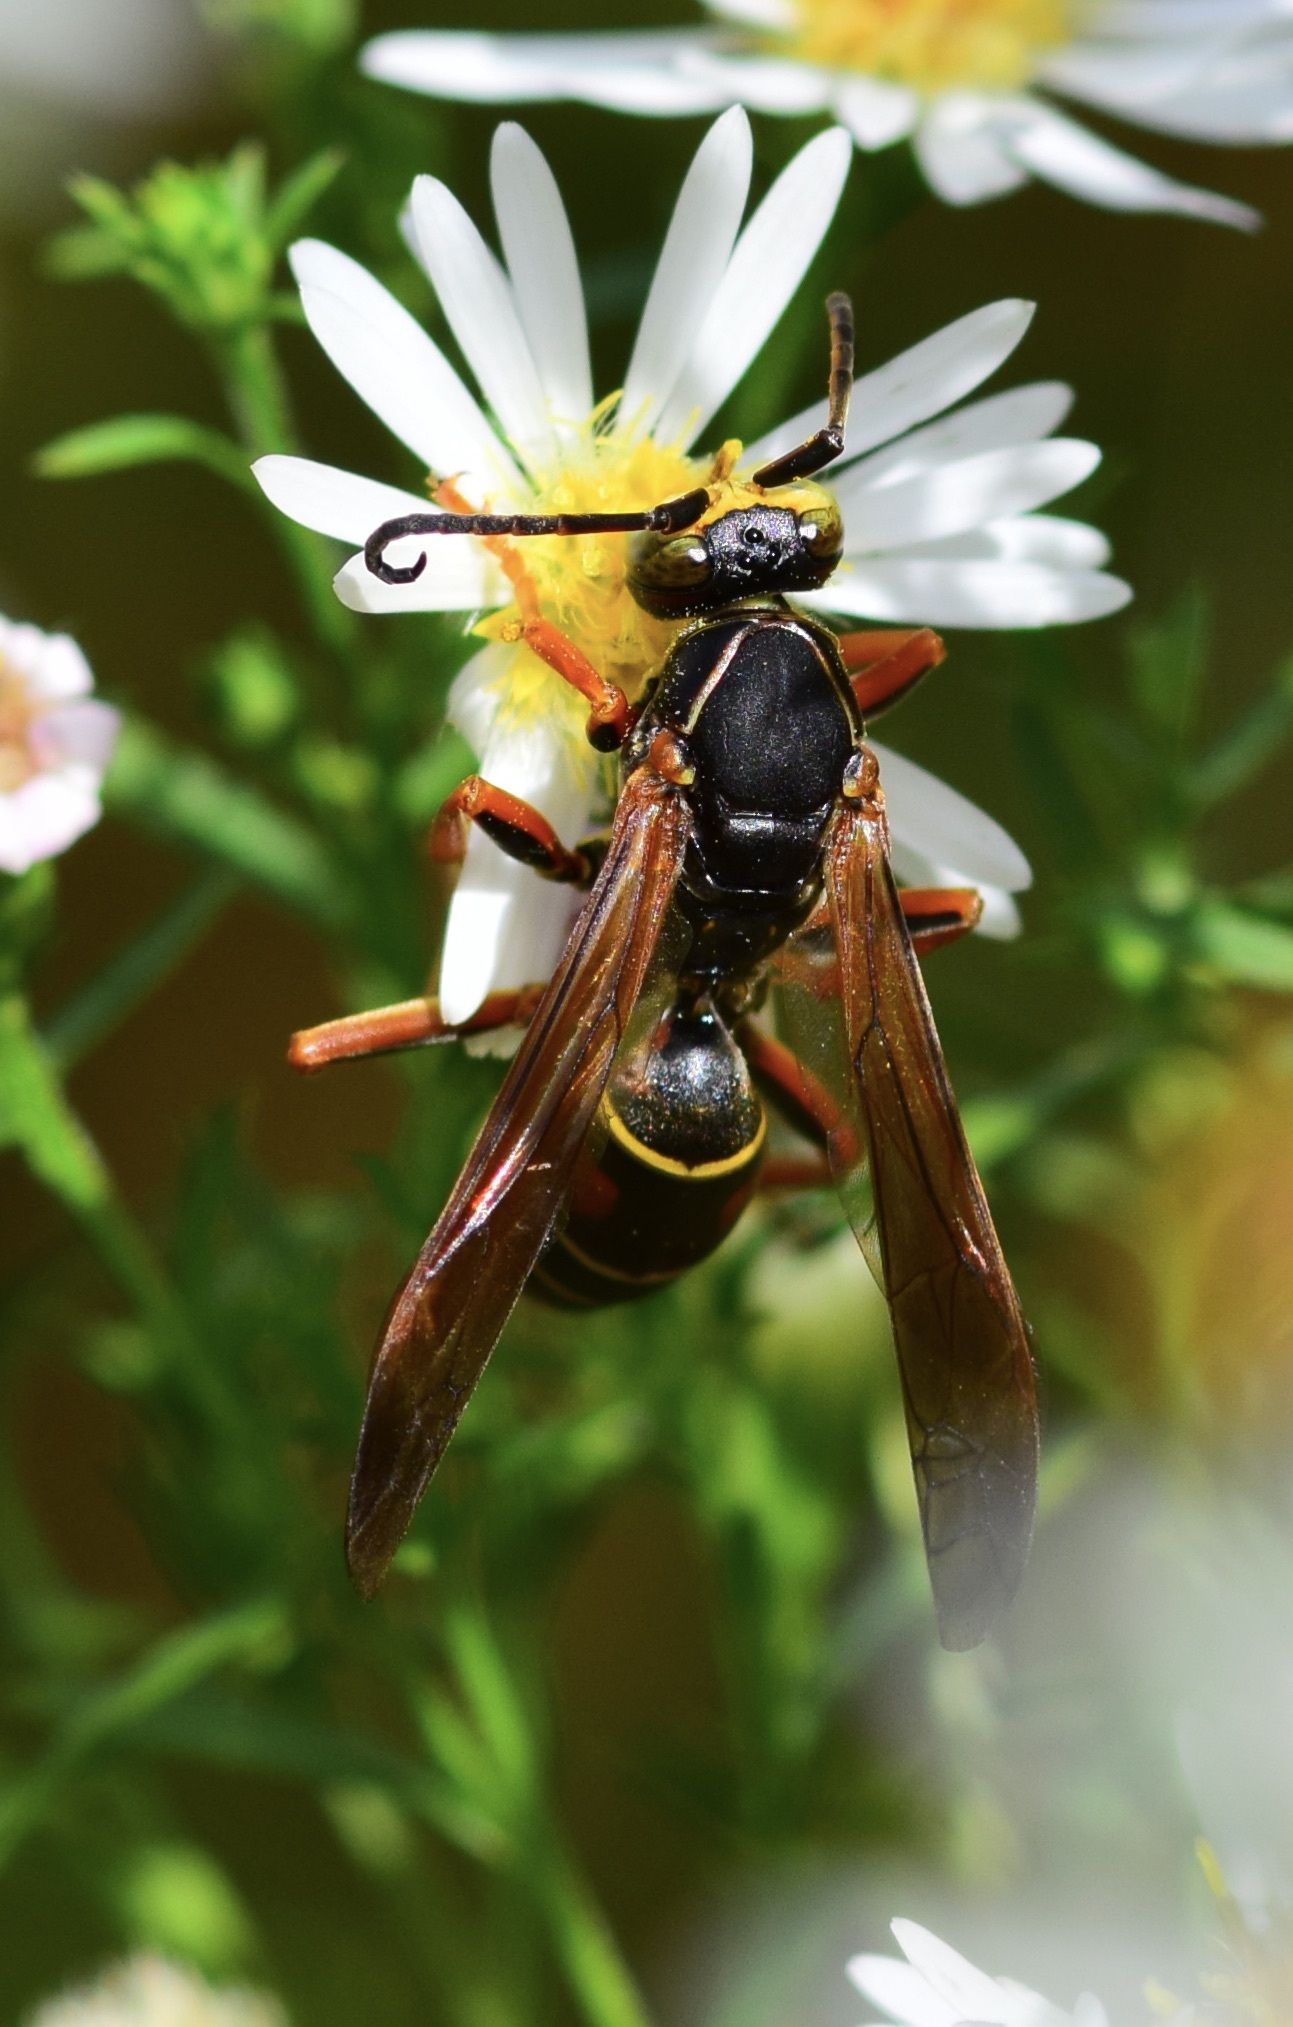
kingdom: Animalia
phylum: Arthropoda
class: Insecta
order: Hymenoptera
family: Eumenidae
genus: Polistes
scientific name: Polistes fuscatus
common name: Dark paper wasp
